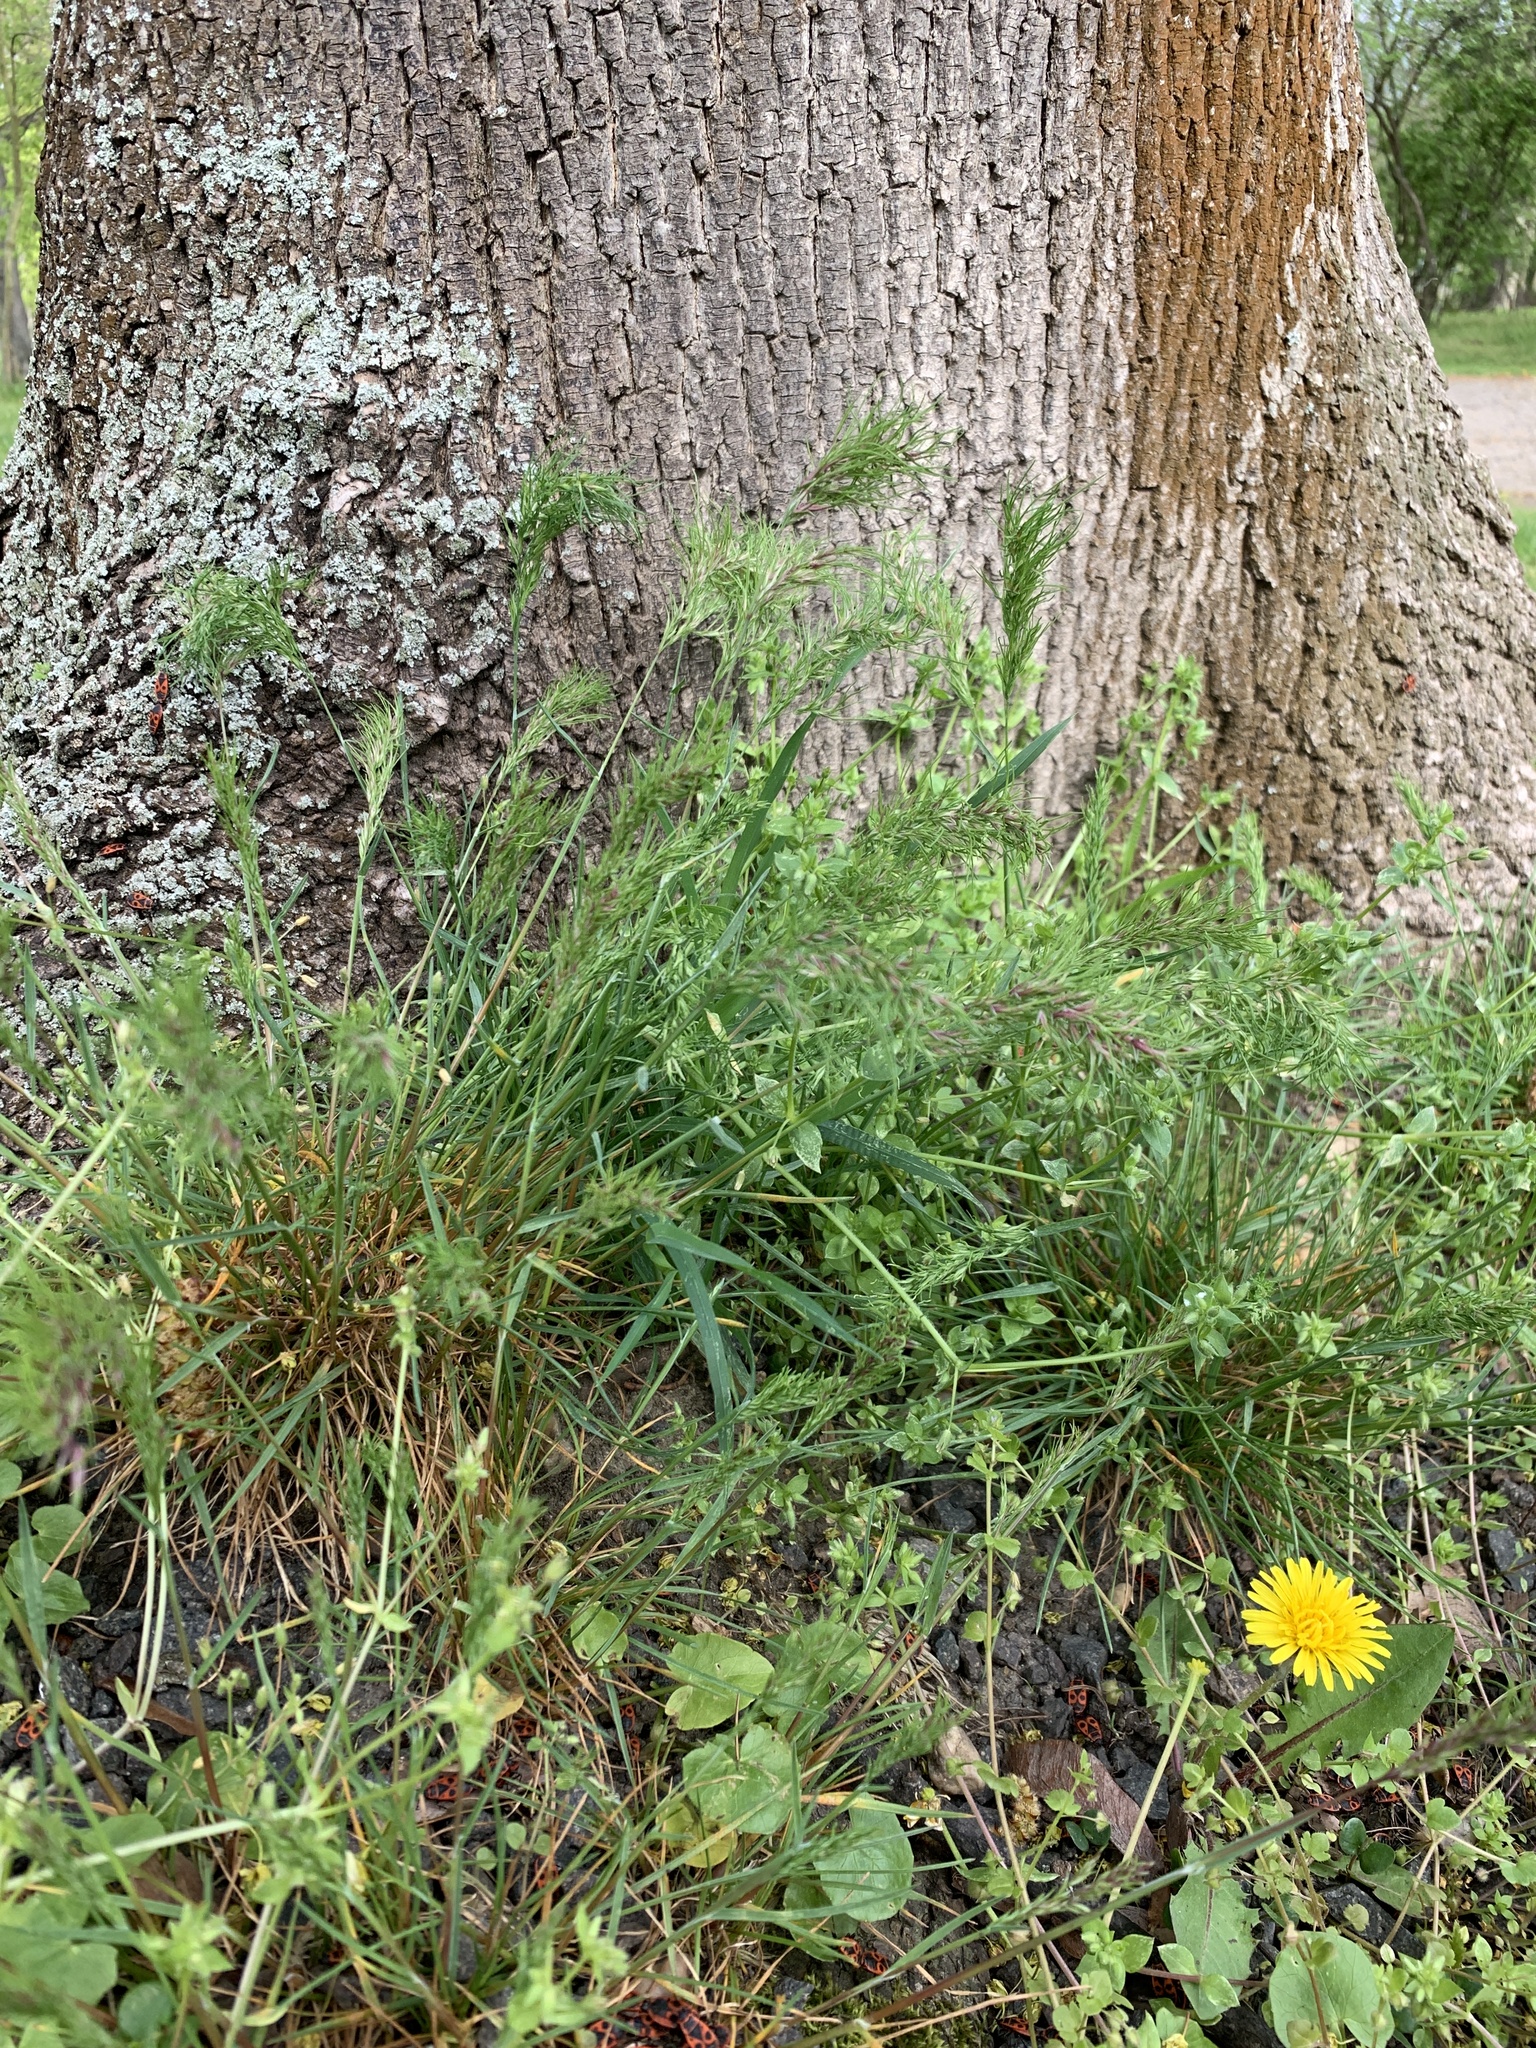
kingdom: Plantae
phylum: Tracheophyta
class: Liliopsida
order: Poales
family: Poaceae
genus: Poa
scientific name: Poa bulbosa
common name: Bulbous bluegrass
